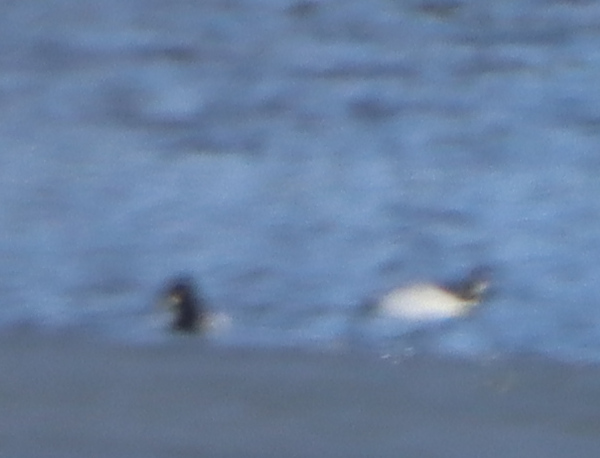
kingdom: Animalia
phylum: Chordata
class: Aves
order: Anseriformes
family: Anatidae
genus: Bucephala
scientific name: Bucephala clangula
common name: Common goldeneye
